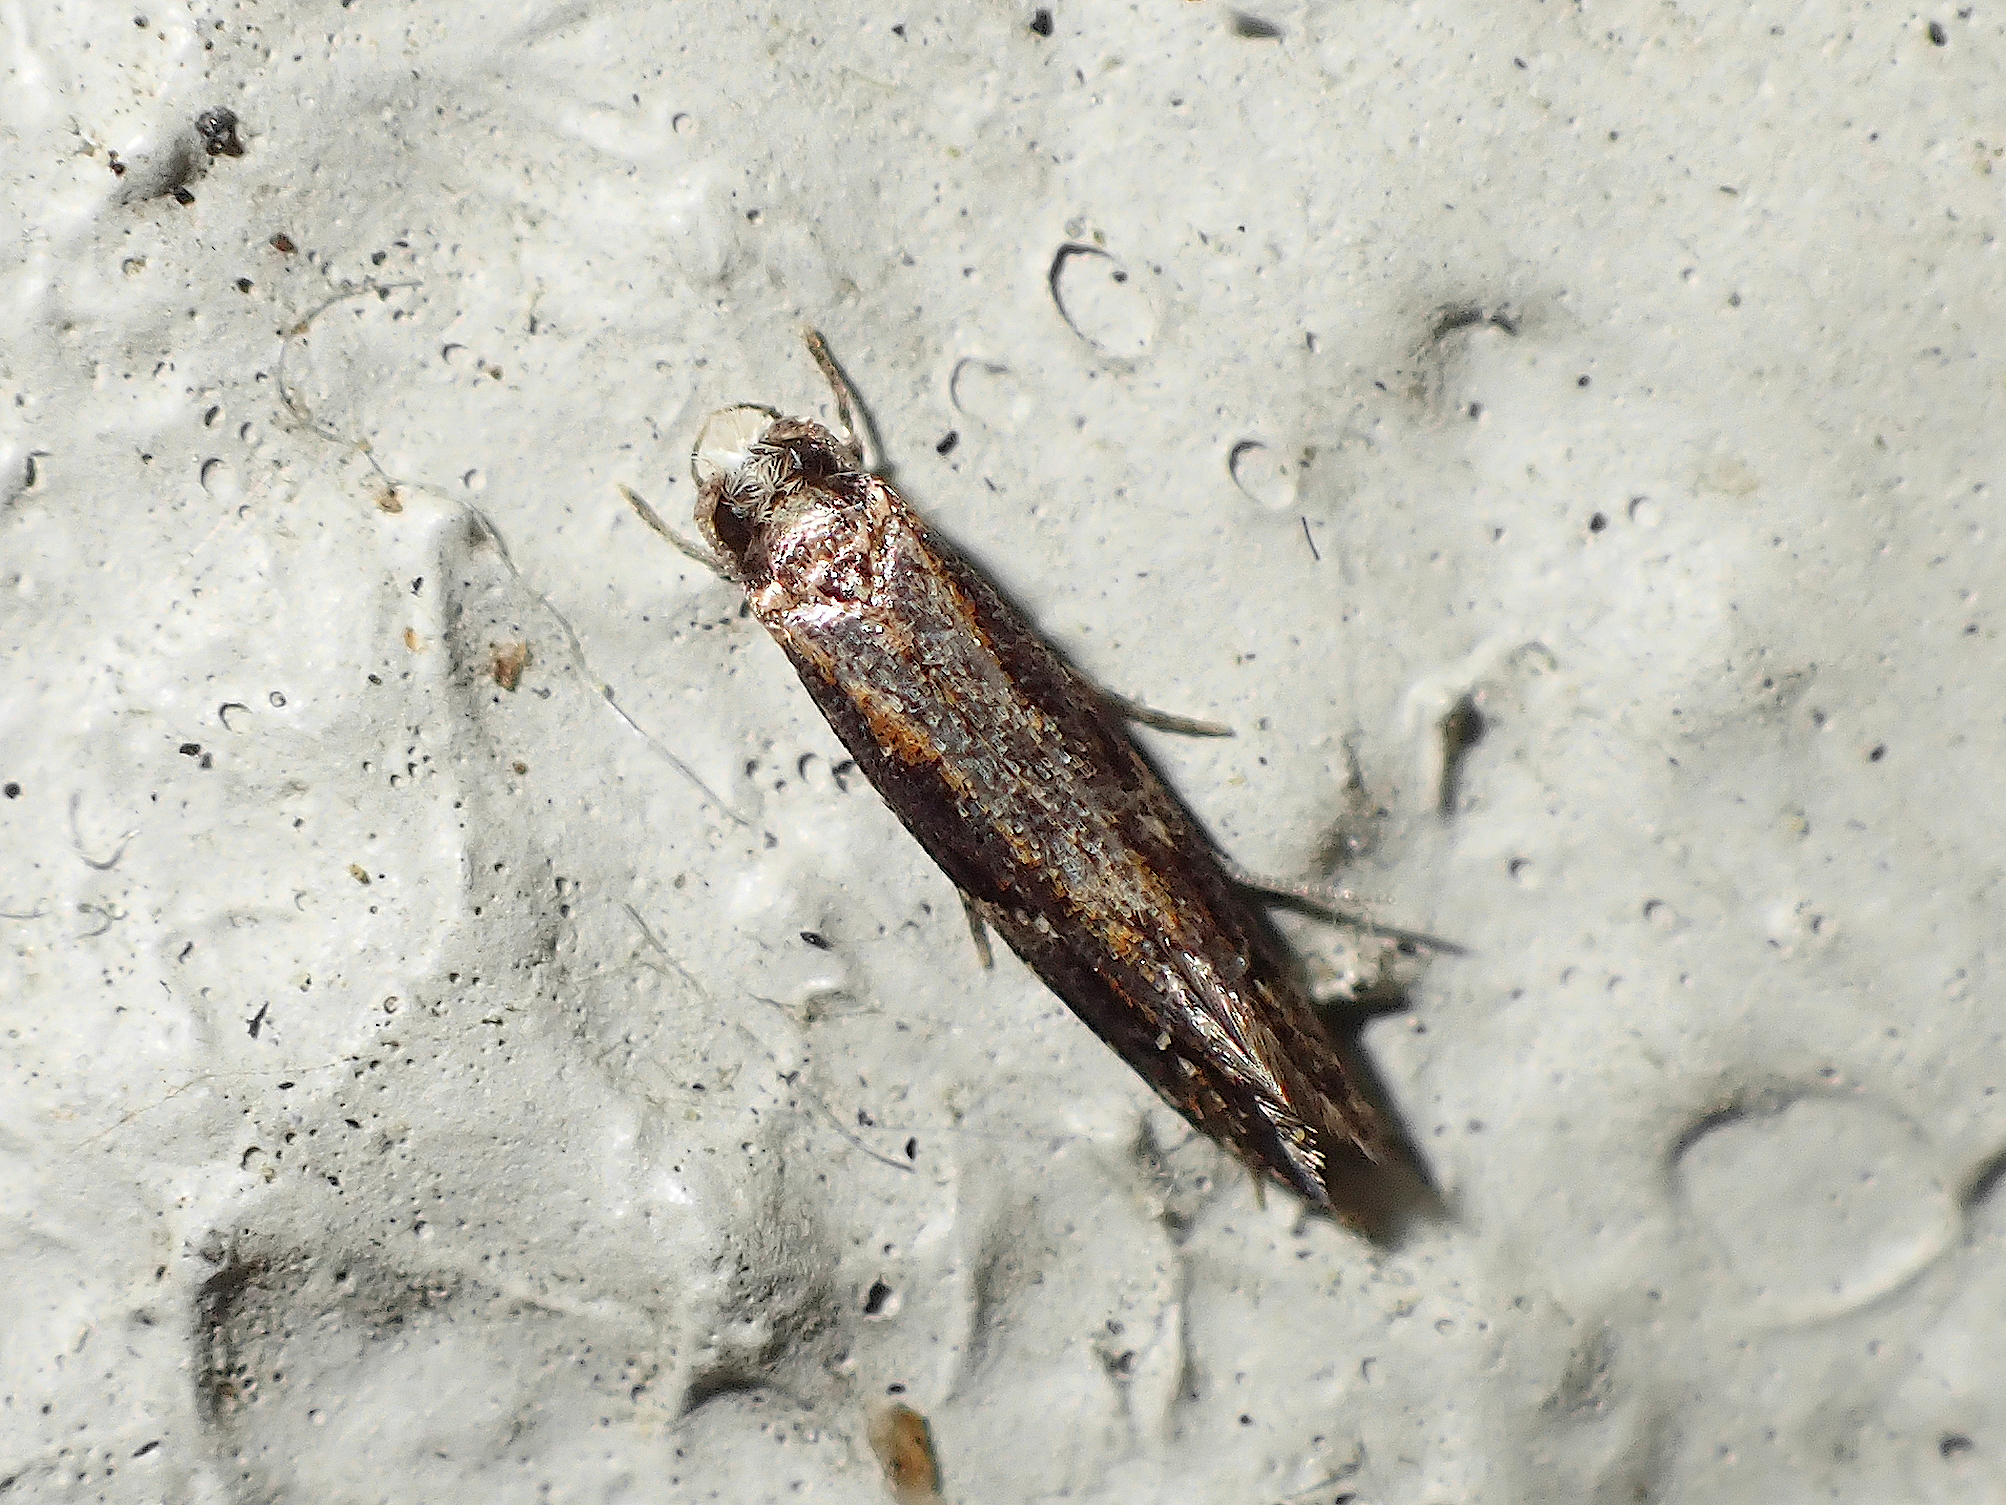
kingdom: Animalia
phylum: Arthropoda
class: Insecta
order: Lepidoptera
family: Tineidae
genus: Crypsitricha
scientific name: Crypsitricha agriopa
